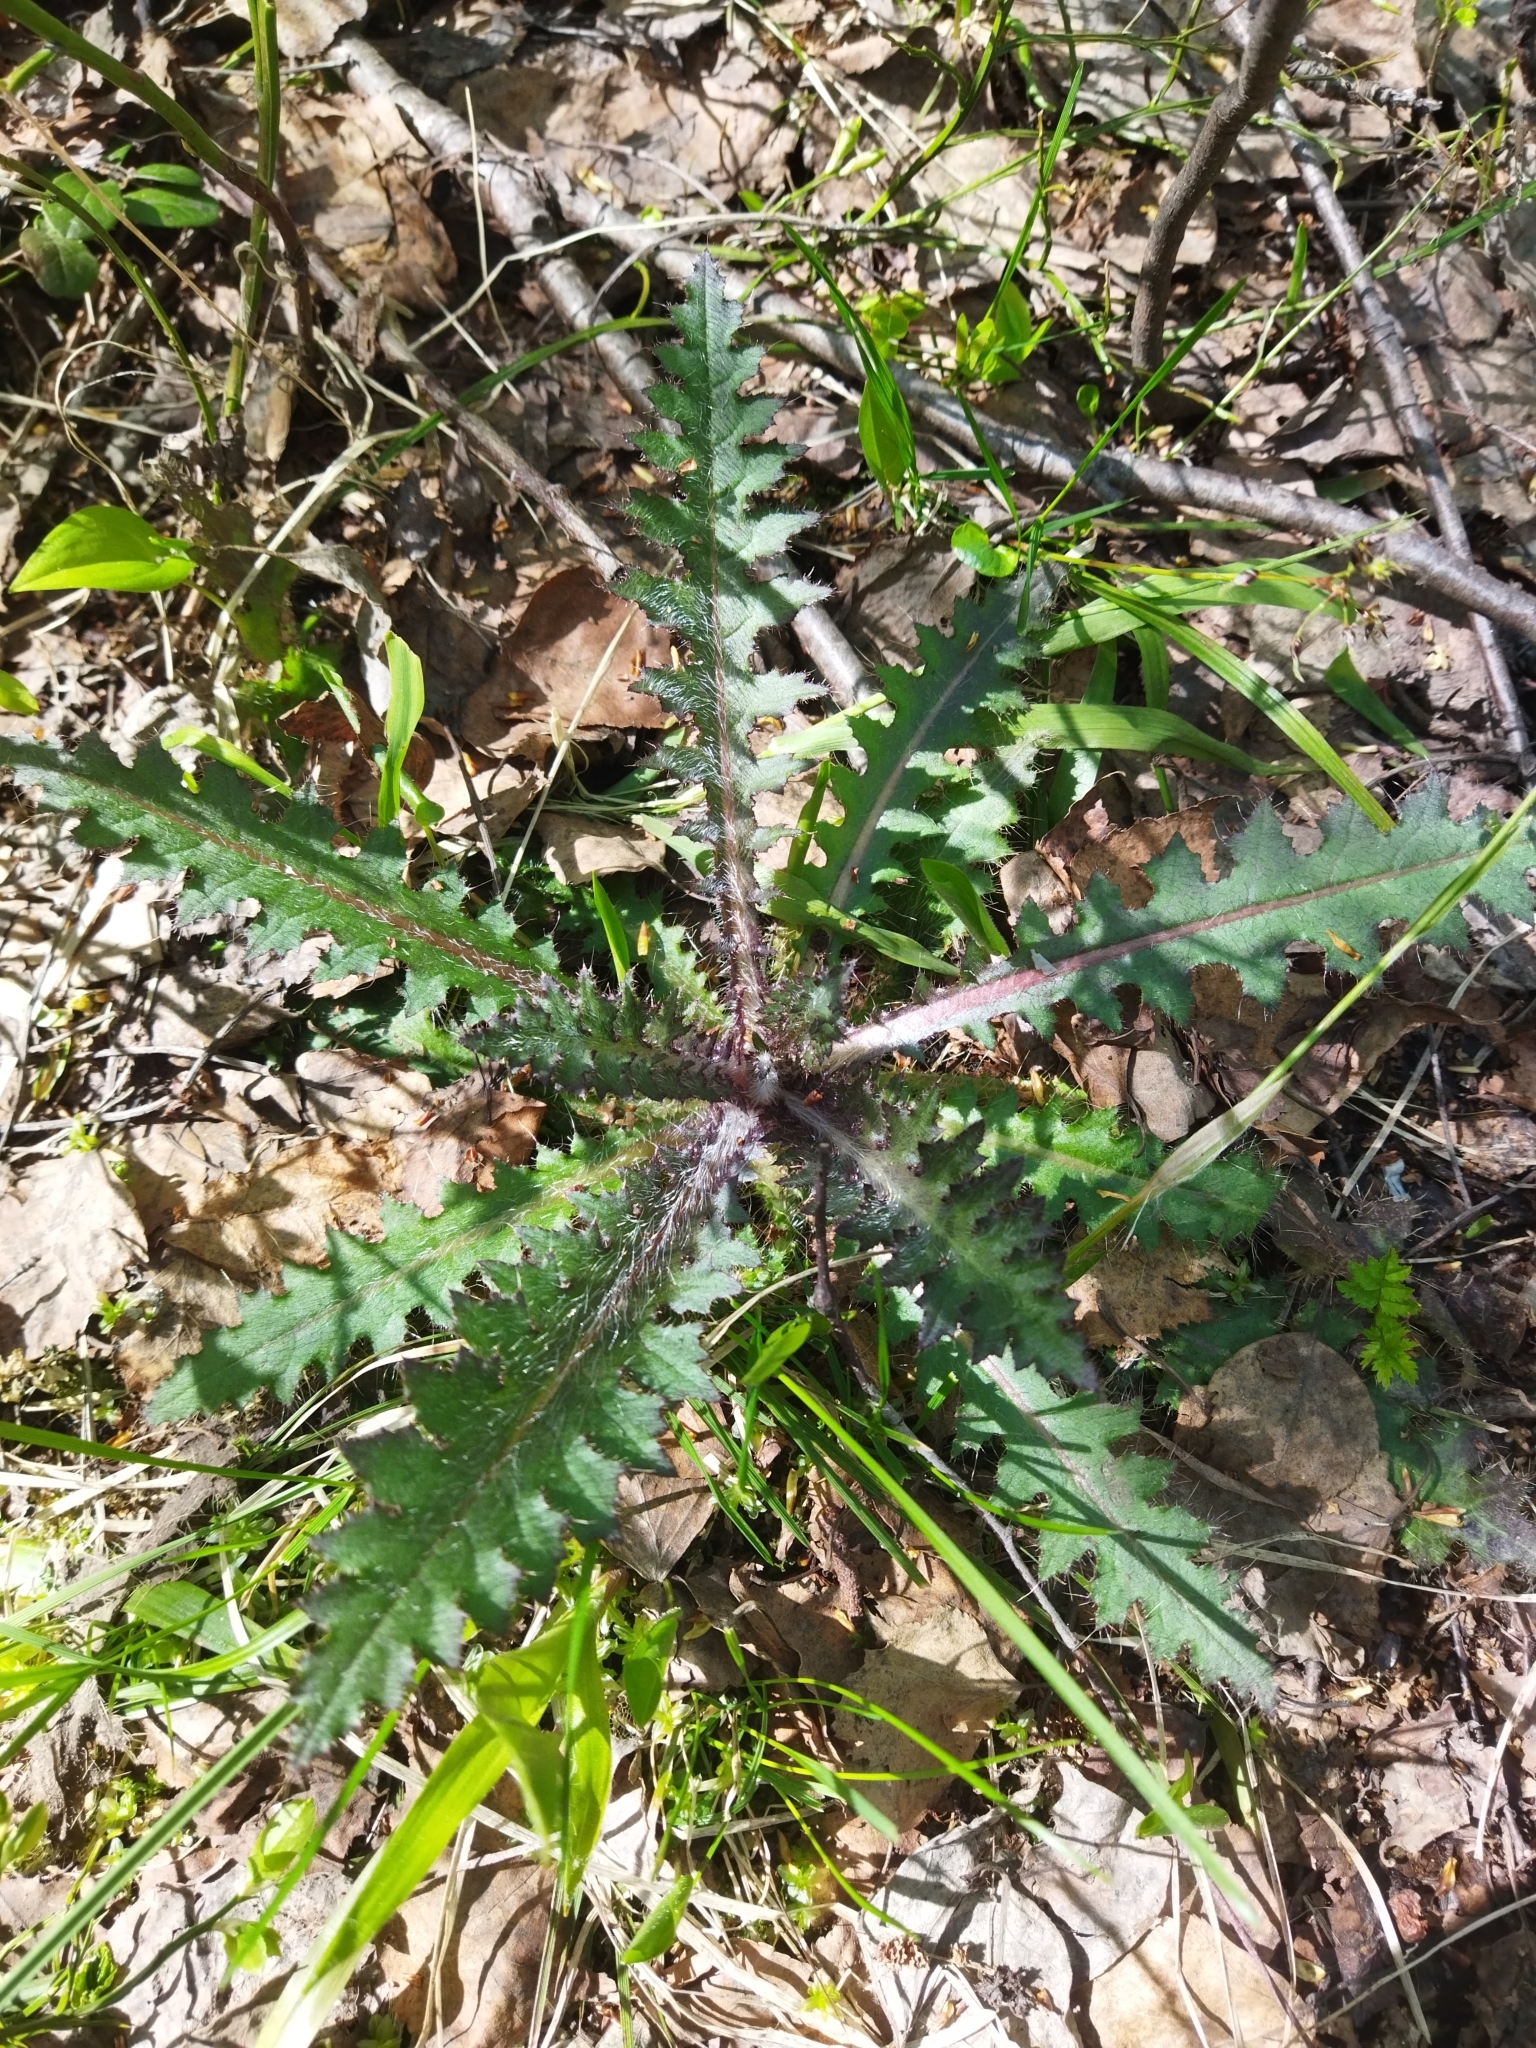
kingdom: Plantae
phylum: Tracheophyta
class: Magnoliopsida
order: Asterales
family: Asteraceae
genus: Cirsium
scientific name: Cirsium palustre
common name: Marsh thistle
